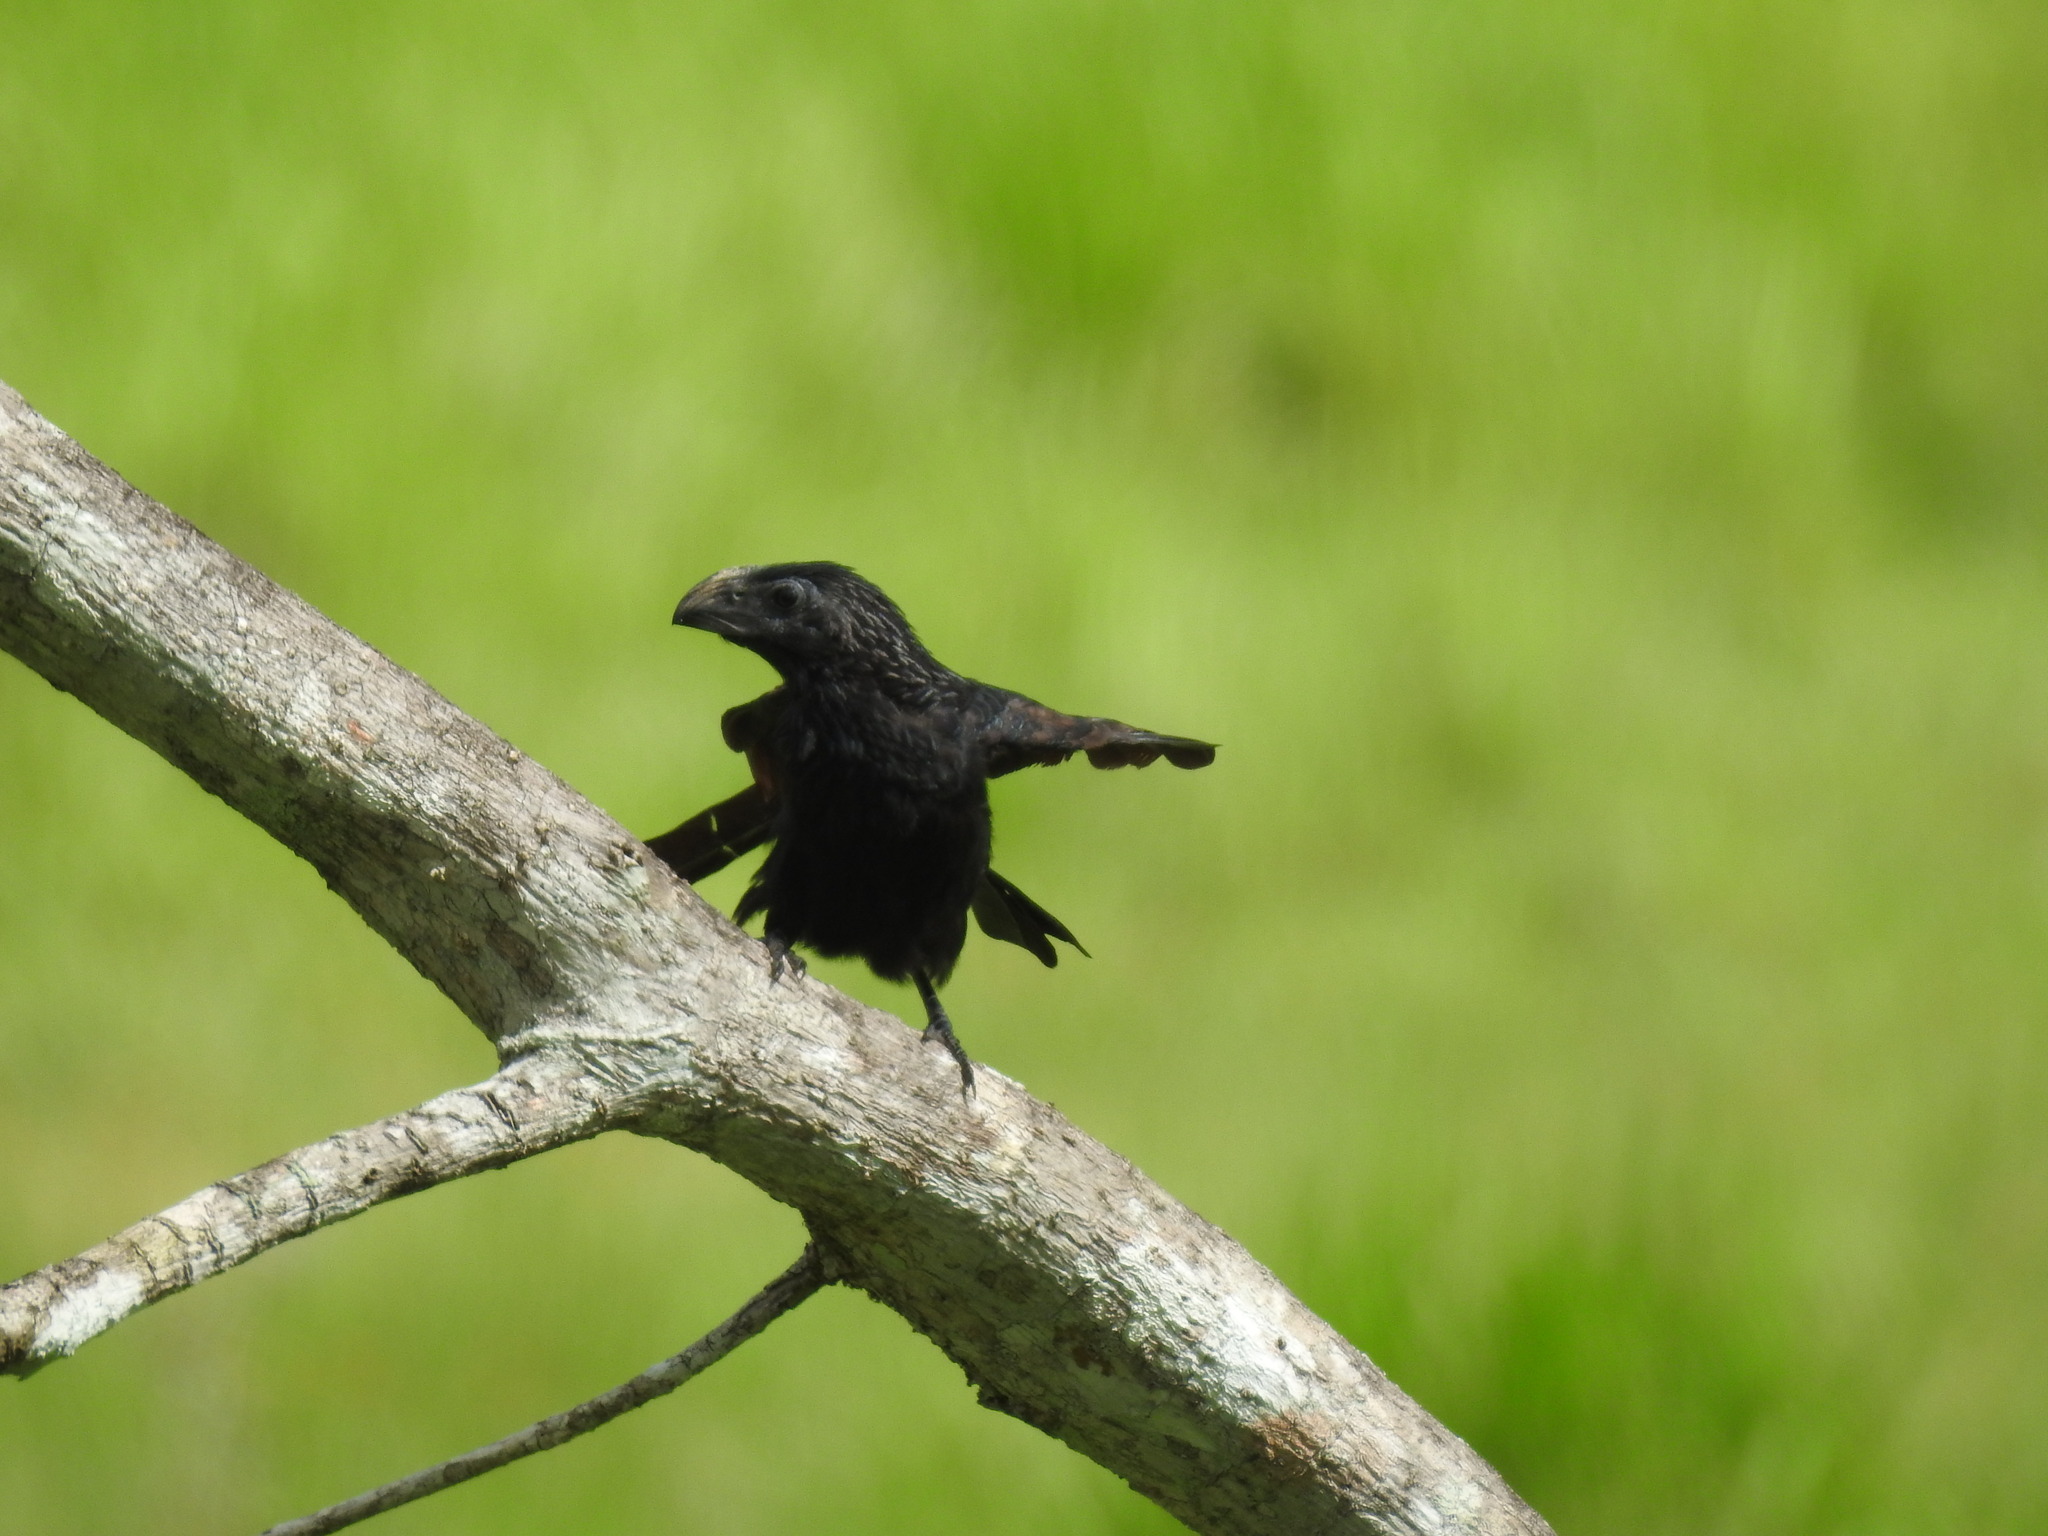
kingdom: Animalia
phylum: Chordata
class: Aves
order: Cuculiformes
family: Cuculidae
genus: Crotophaga
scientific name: Crotophaga sulcirostris
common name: Groove-billed ani
